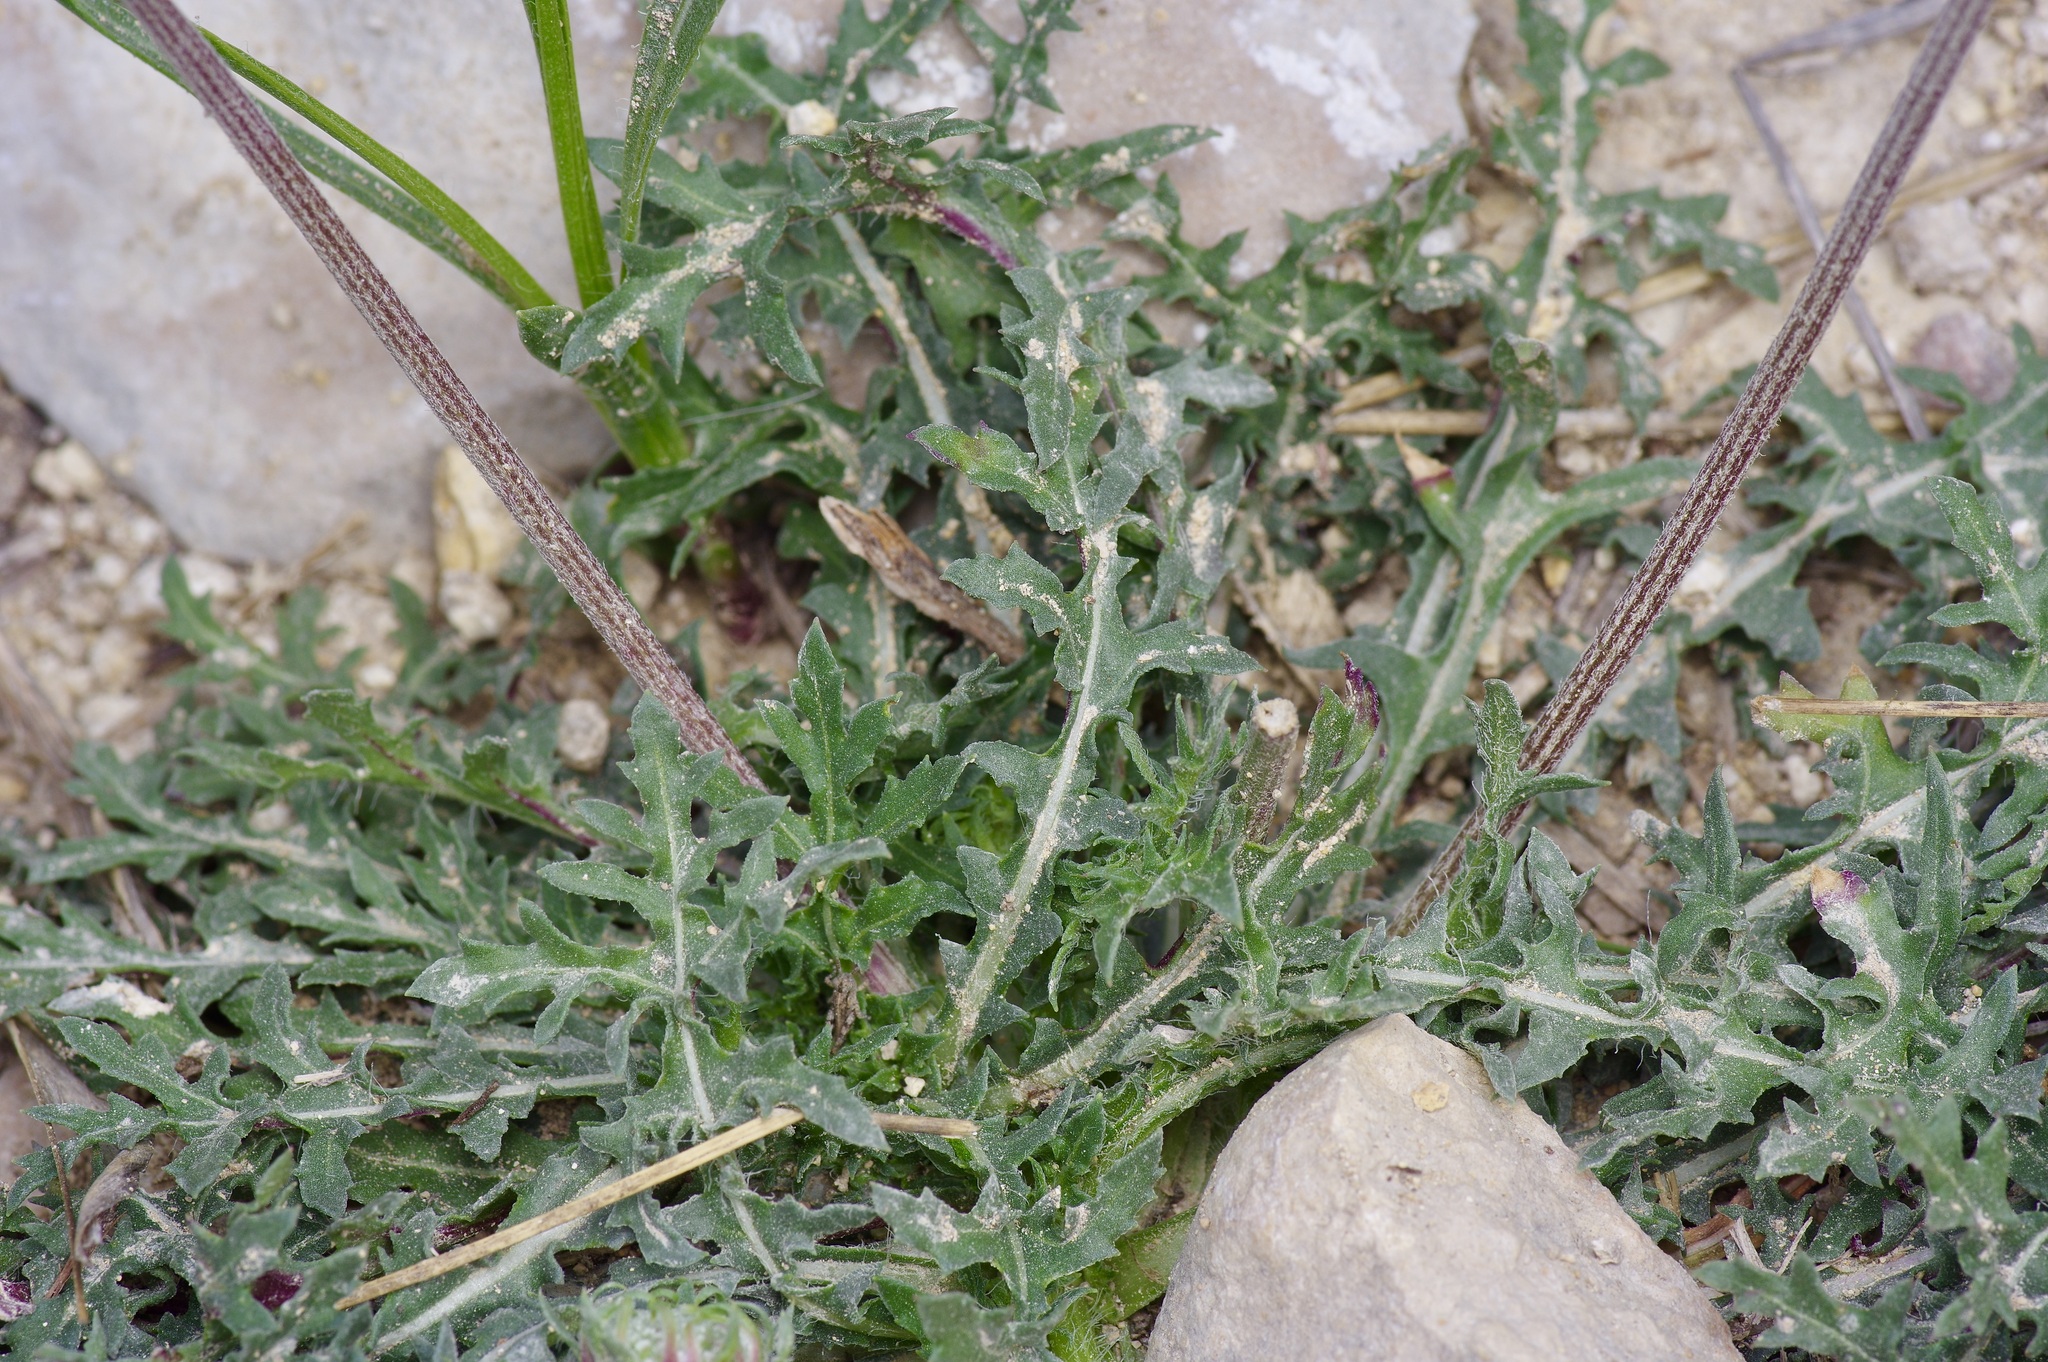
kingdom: Plantae
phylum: Tracheophyta
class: Magnoliopsida
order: Asterales
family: Asteraceae
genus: Gaillardia
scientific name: Gaillardia suavis
